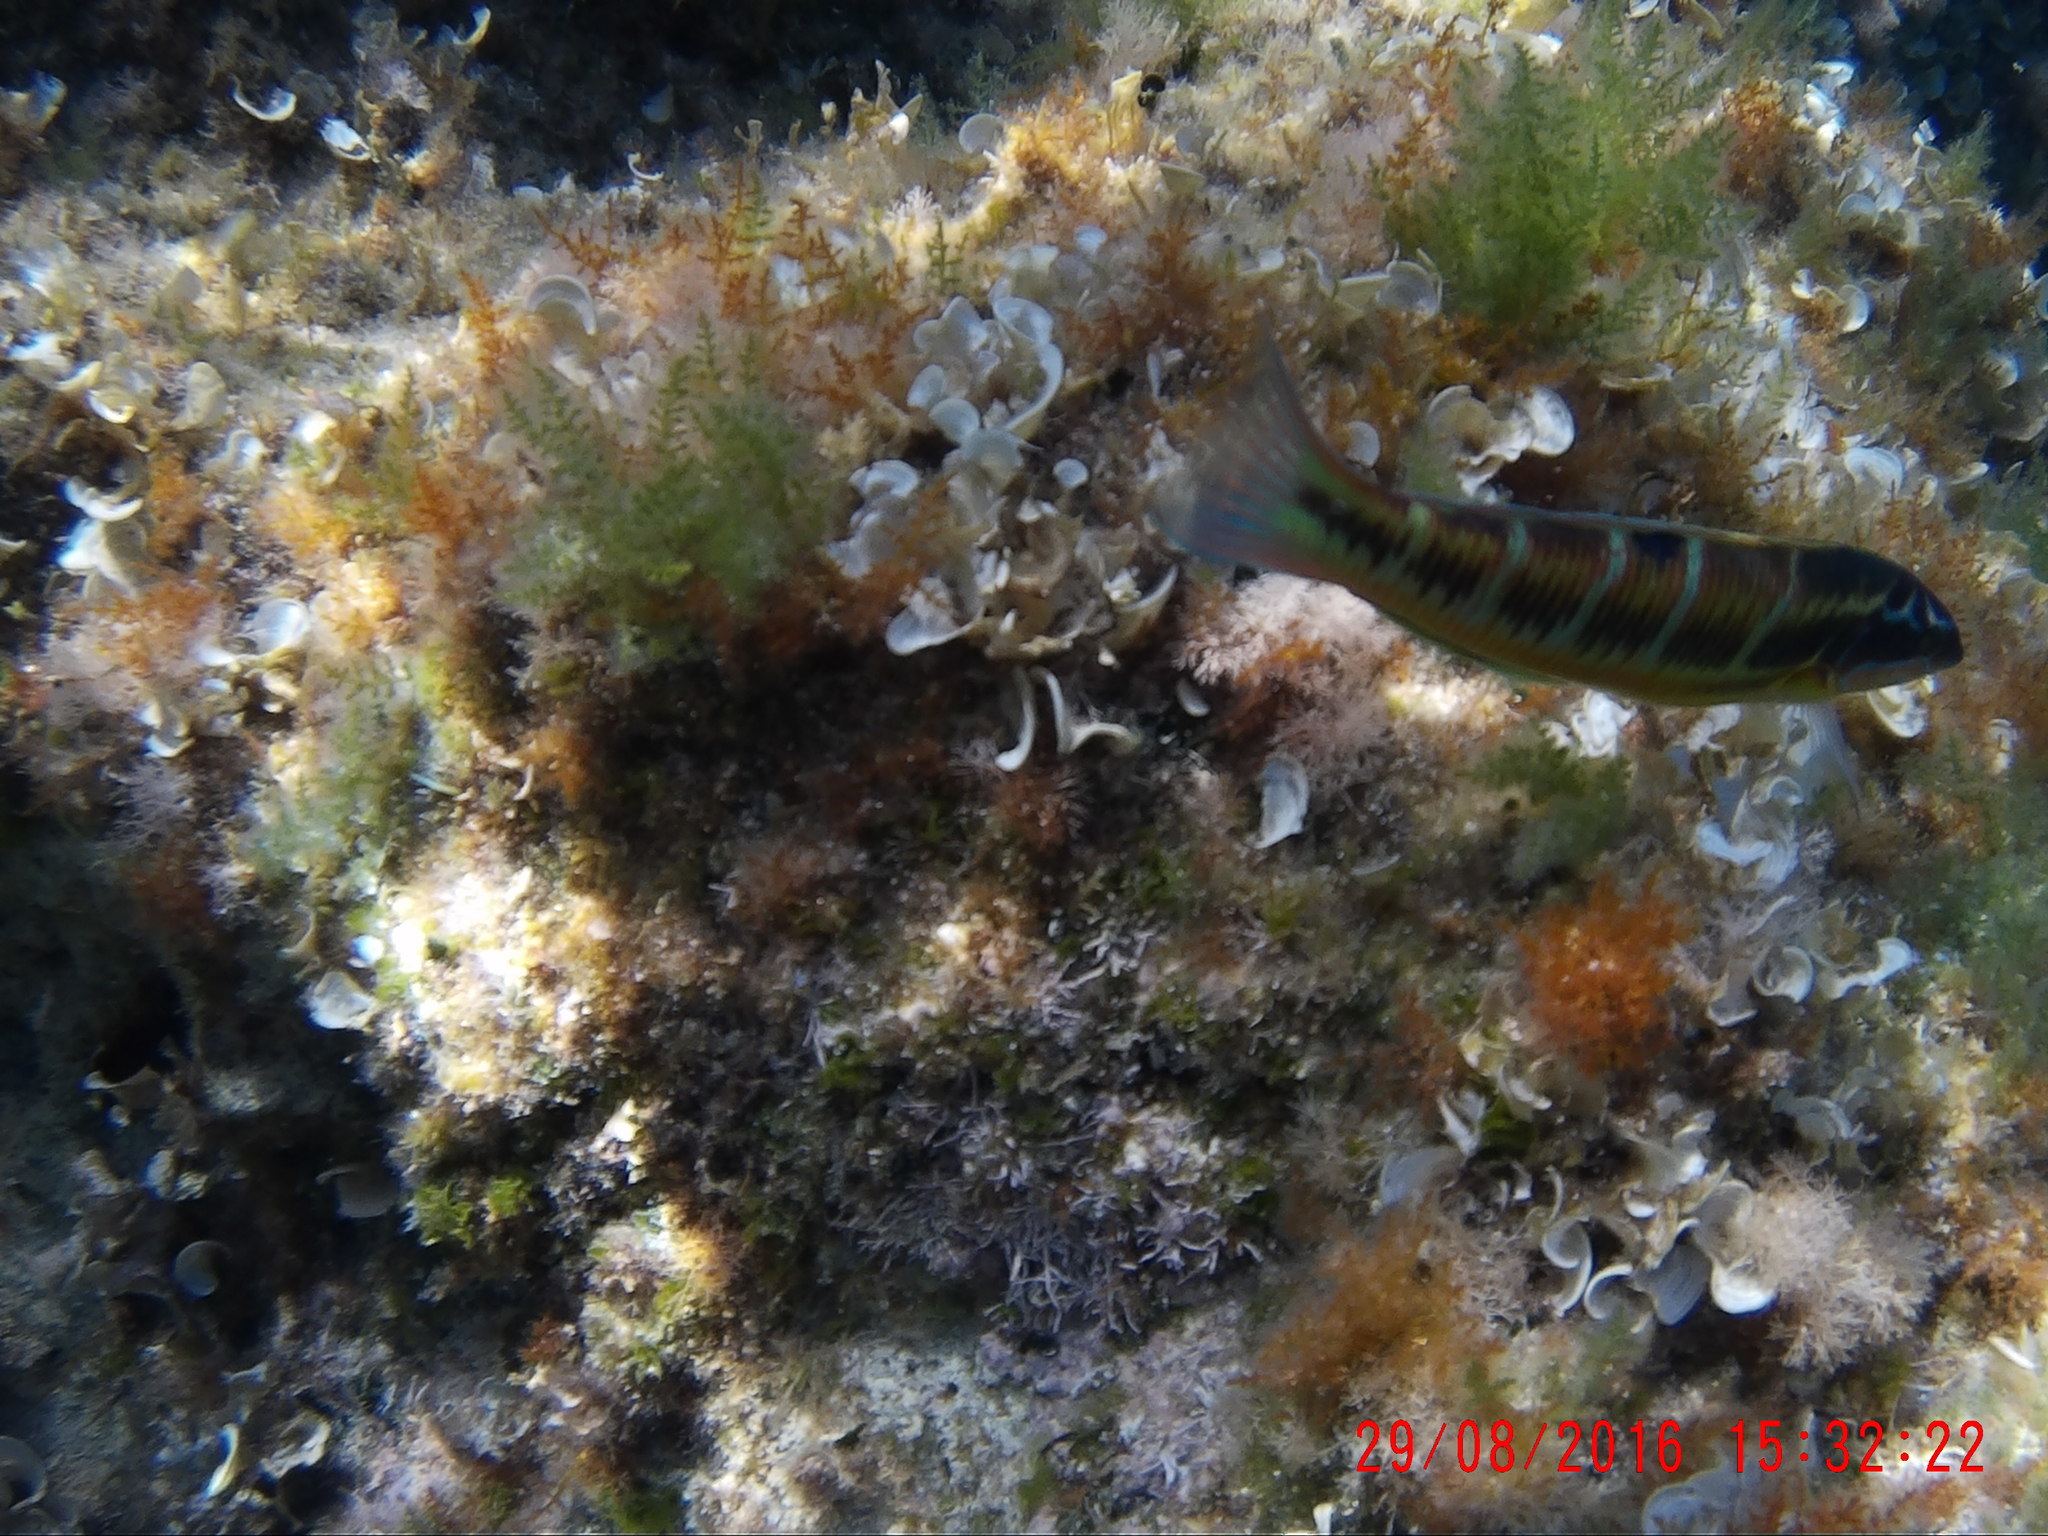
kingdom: Animalia
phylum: Chordata
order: Perciformes
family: Labridae
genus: Thalassoma
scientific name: Thalassoma pavo
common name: Ornate wrasse
